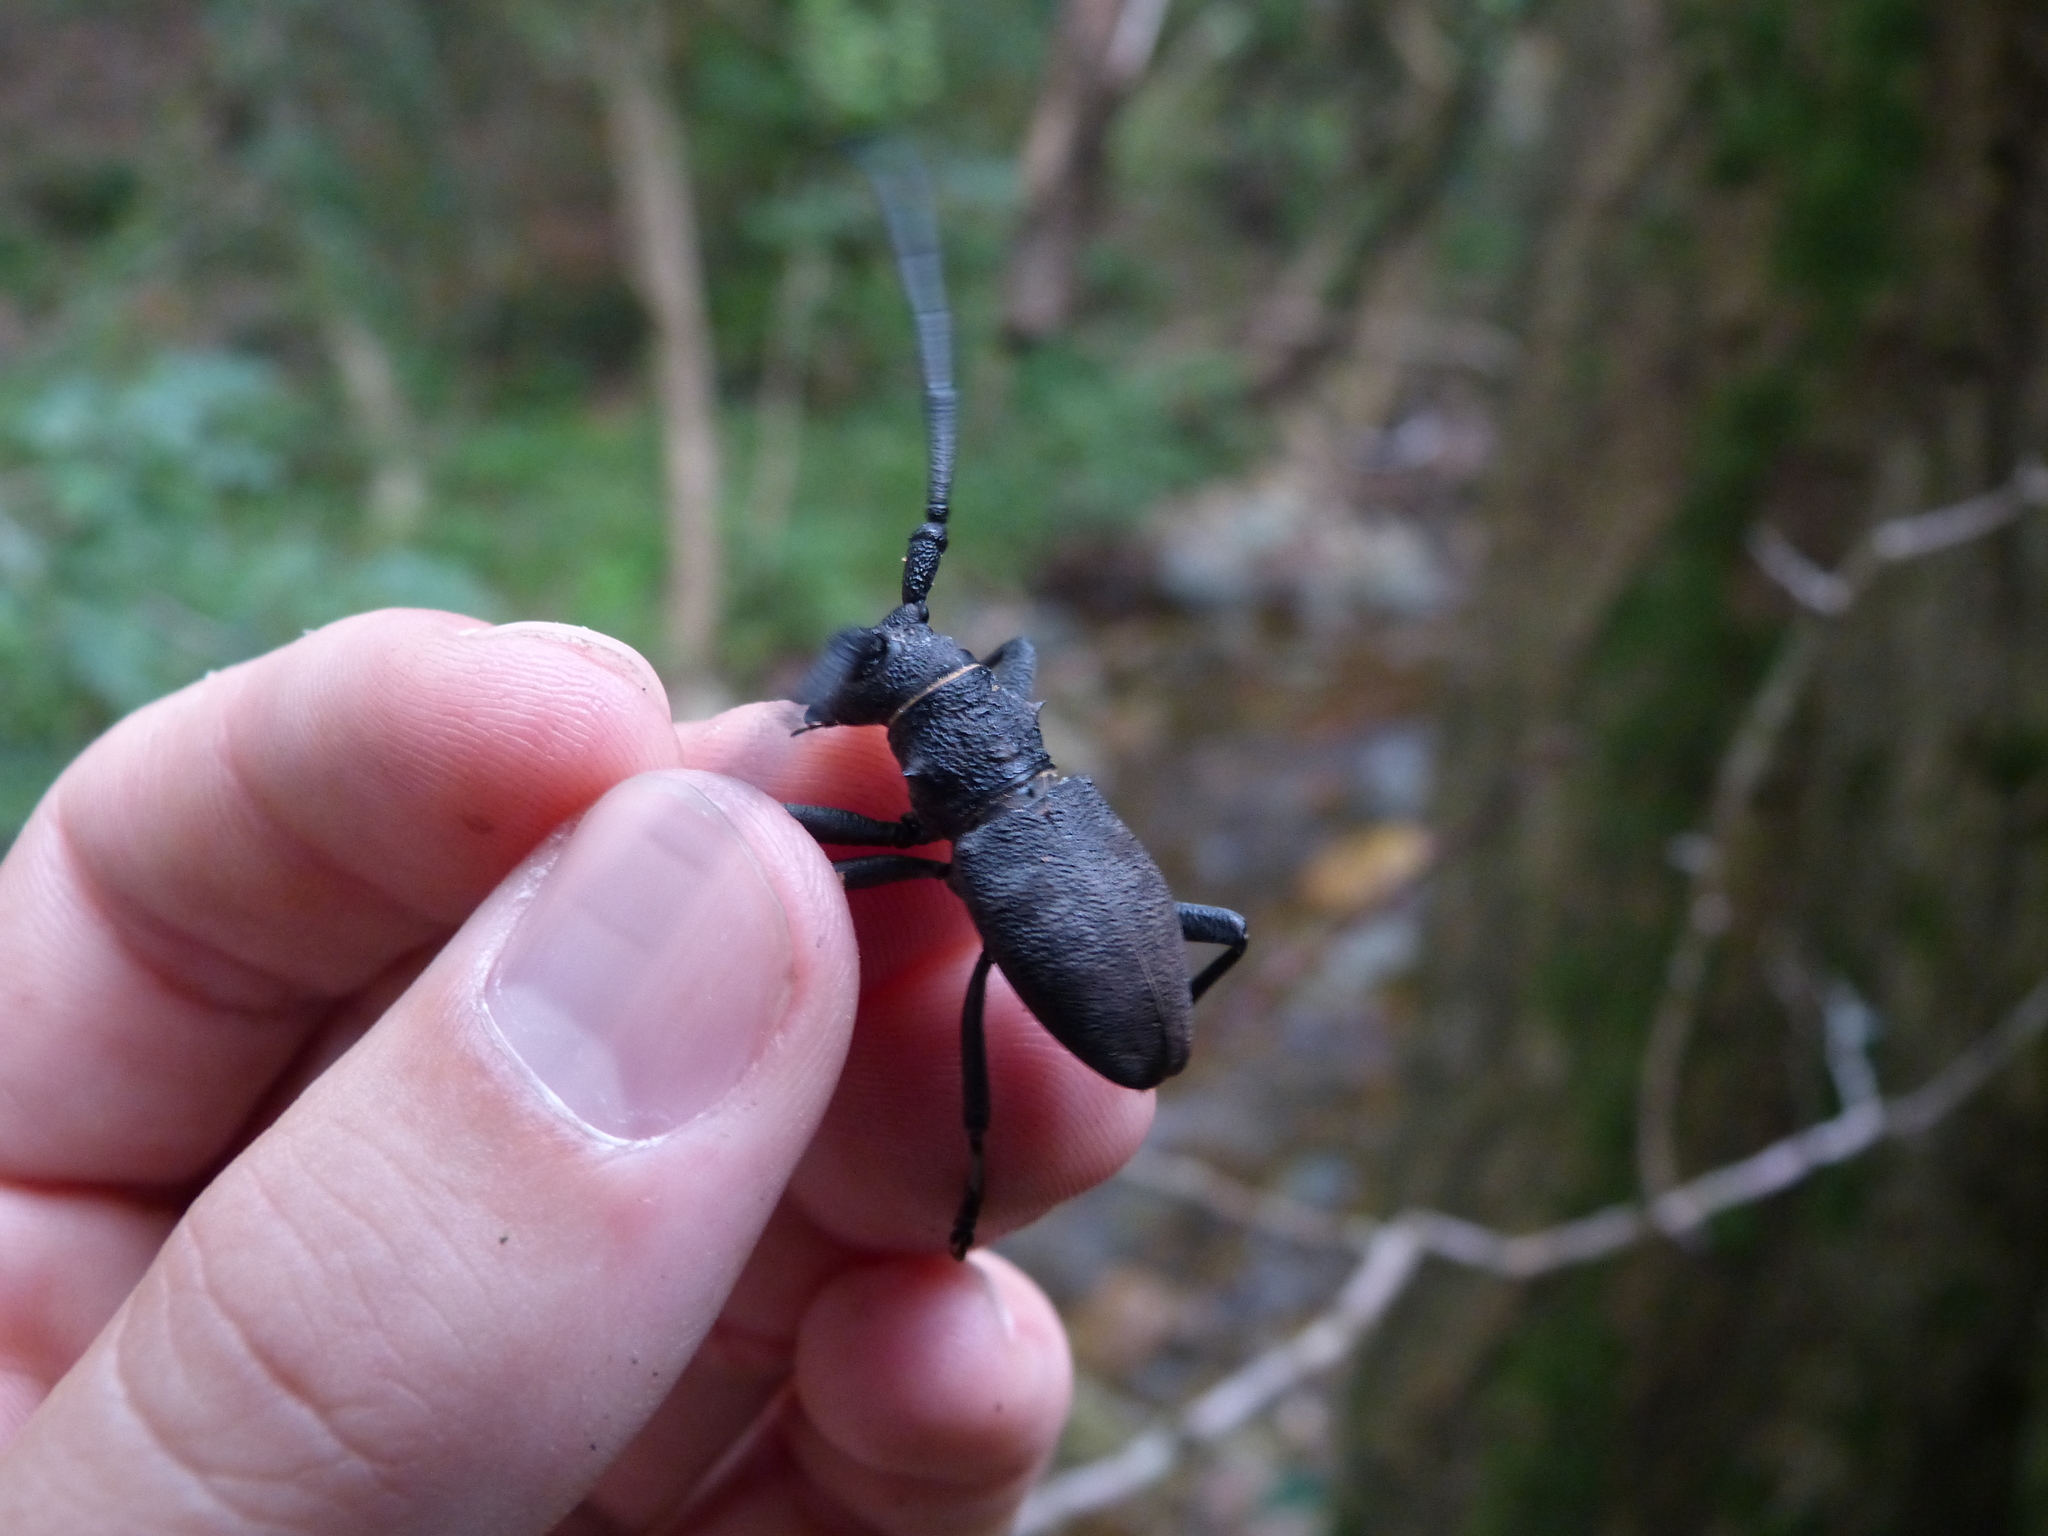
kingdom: Animalia
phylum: Arthropoda
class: Insecta
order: Coleoptera
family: Cerambycidae
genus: Morimus
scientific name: Morimus asper
